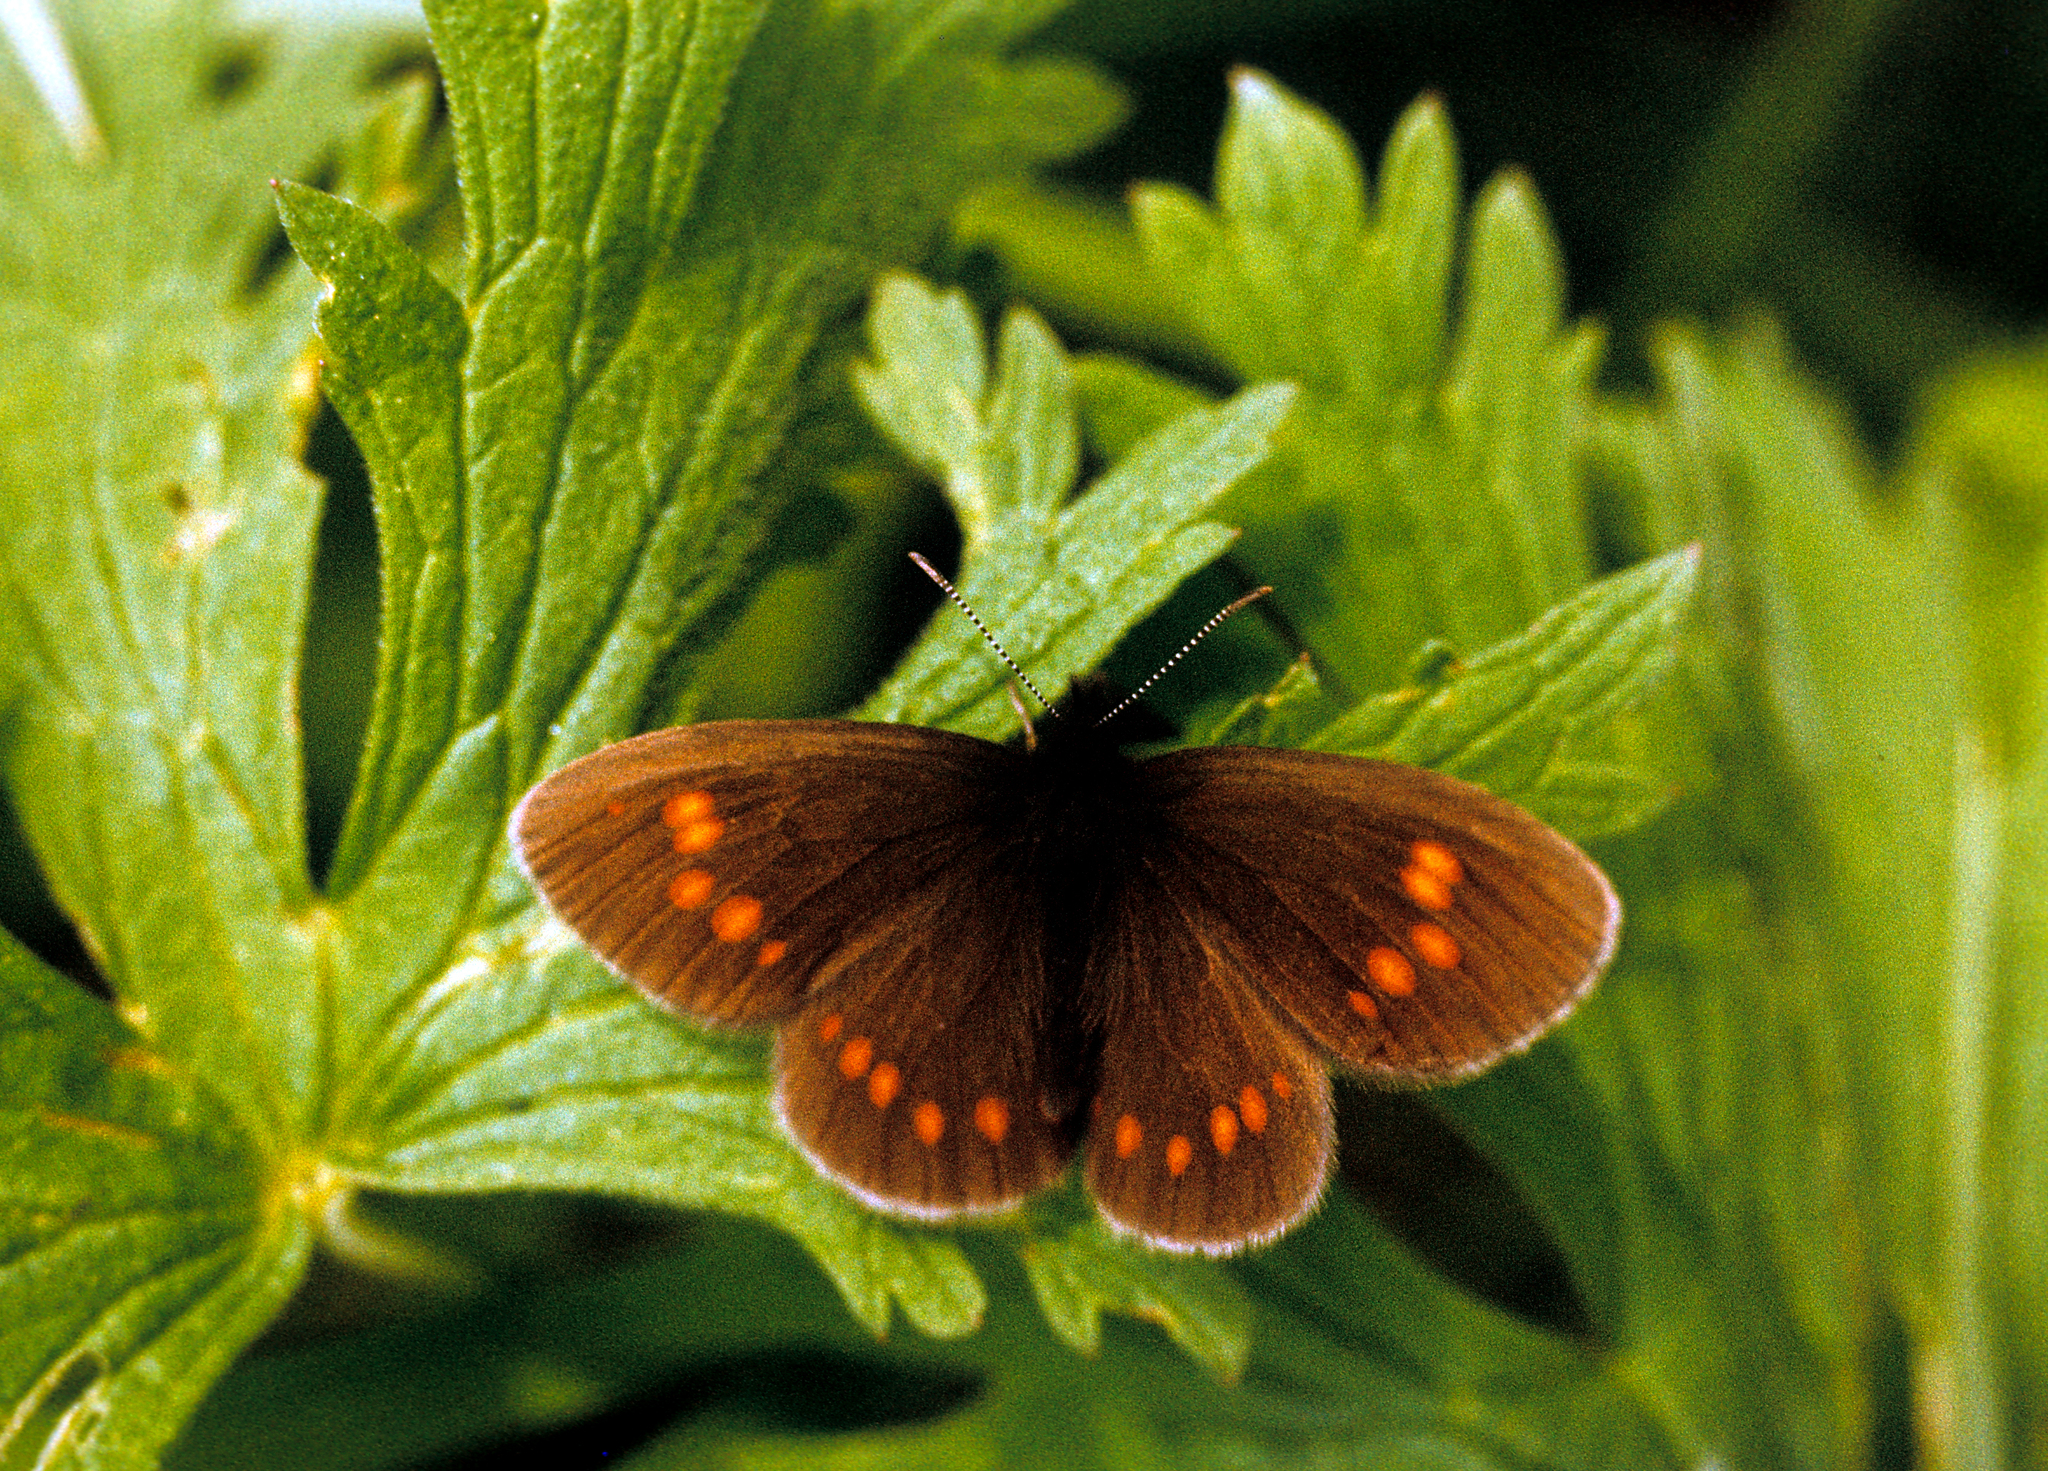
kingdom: Animalia
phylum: Arthropoda
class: Insecta
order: Lepidoptera
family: Nymphalidae
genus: Erebia
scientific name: Erebia turanica
